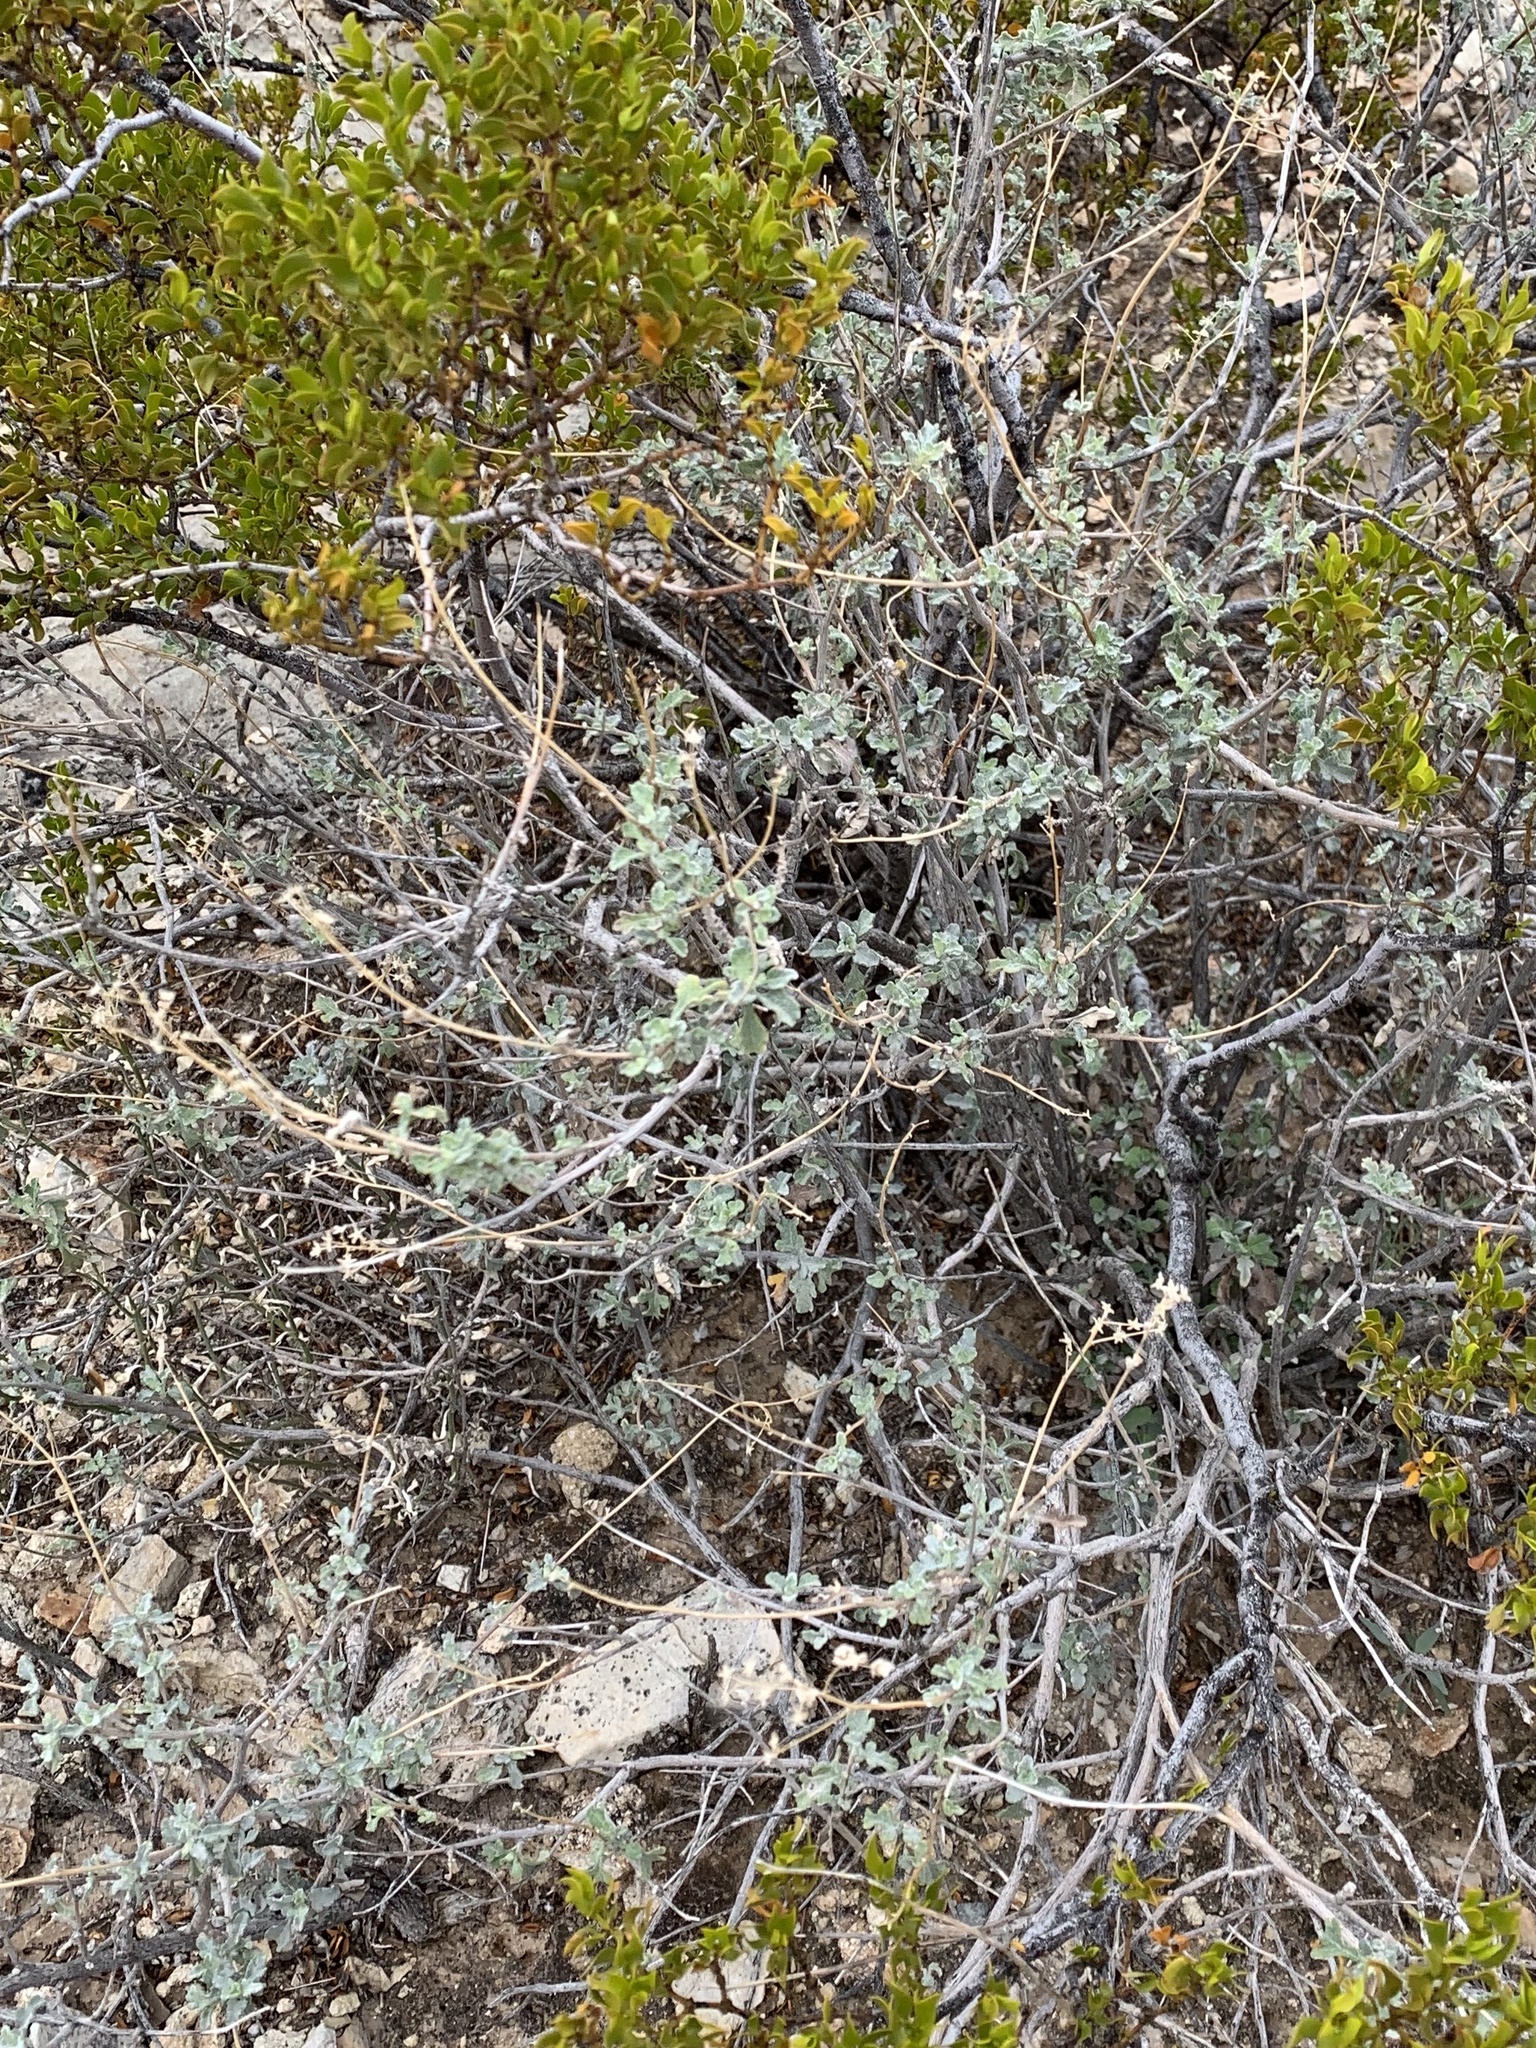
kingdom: Plantae
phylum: Tracheophyta
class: Magnoliopsida
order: Asterales
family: Asteraceae
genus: Parthenium
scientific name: Parthenium incanum
